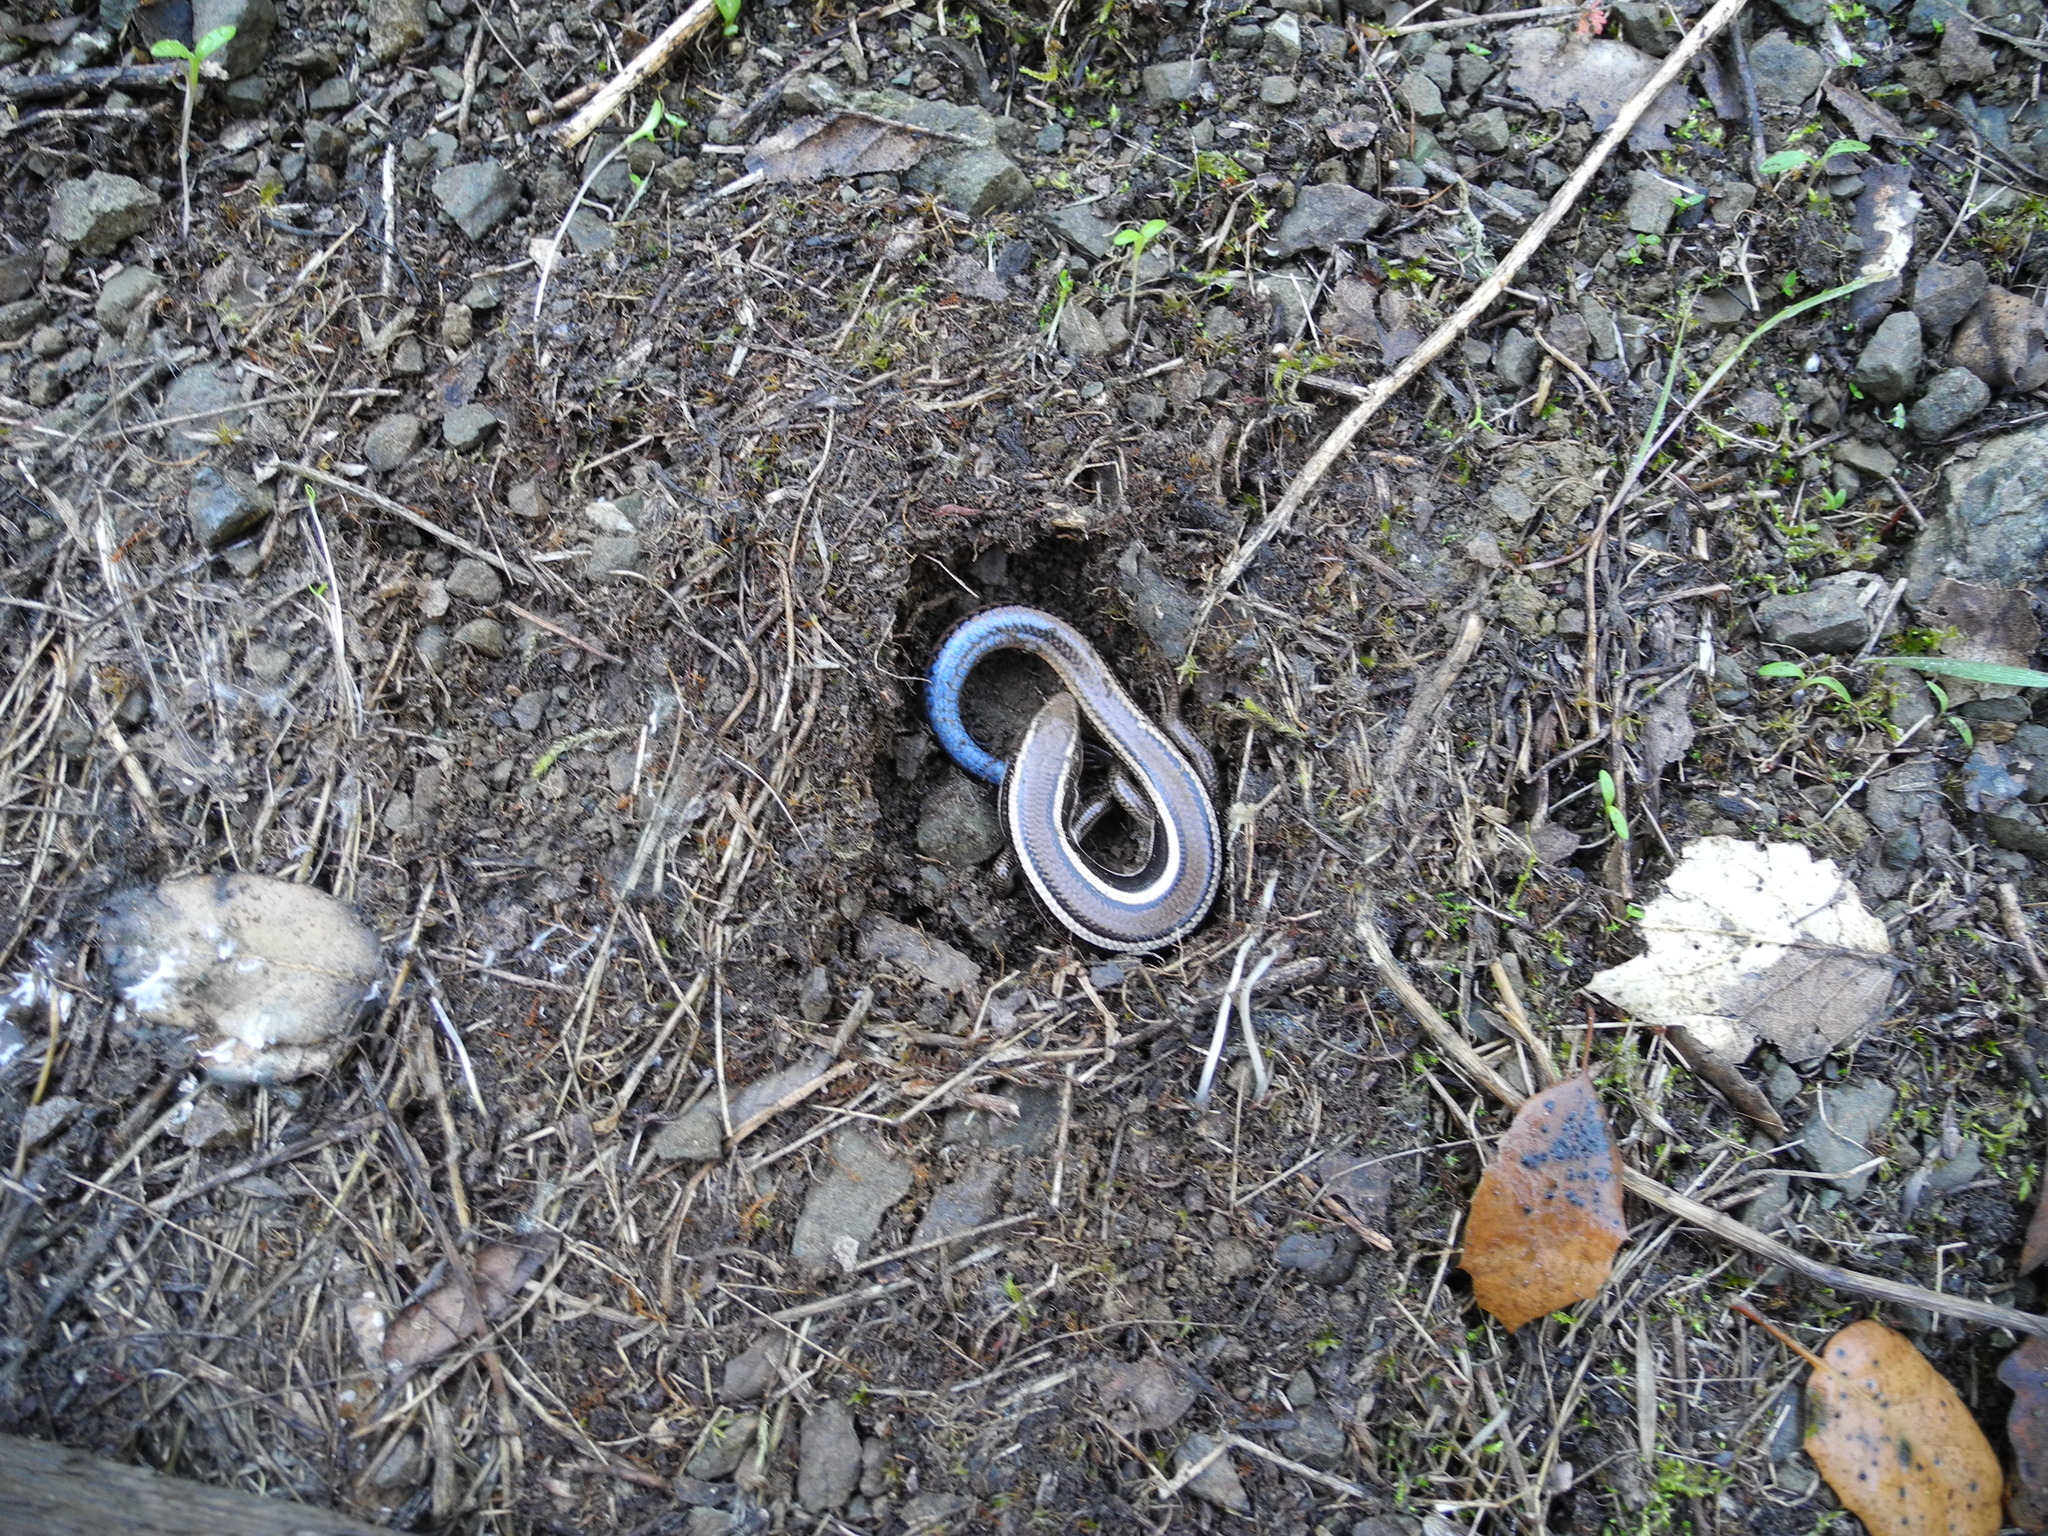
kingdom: Animalia
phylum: Chordata
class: Squamata
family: Scincidae
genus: Plestiodon
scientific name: Plestiodon skiltonianus
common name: Coronado island skink [interparietalis]
